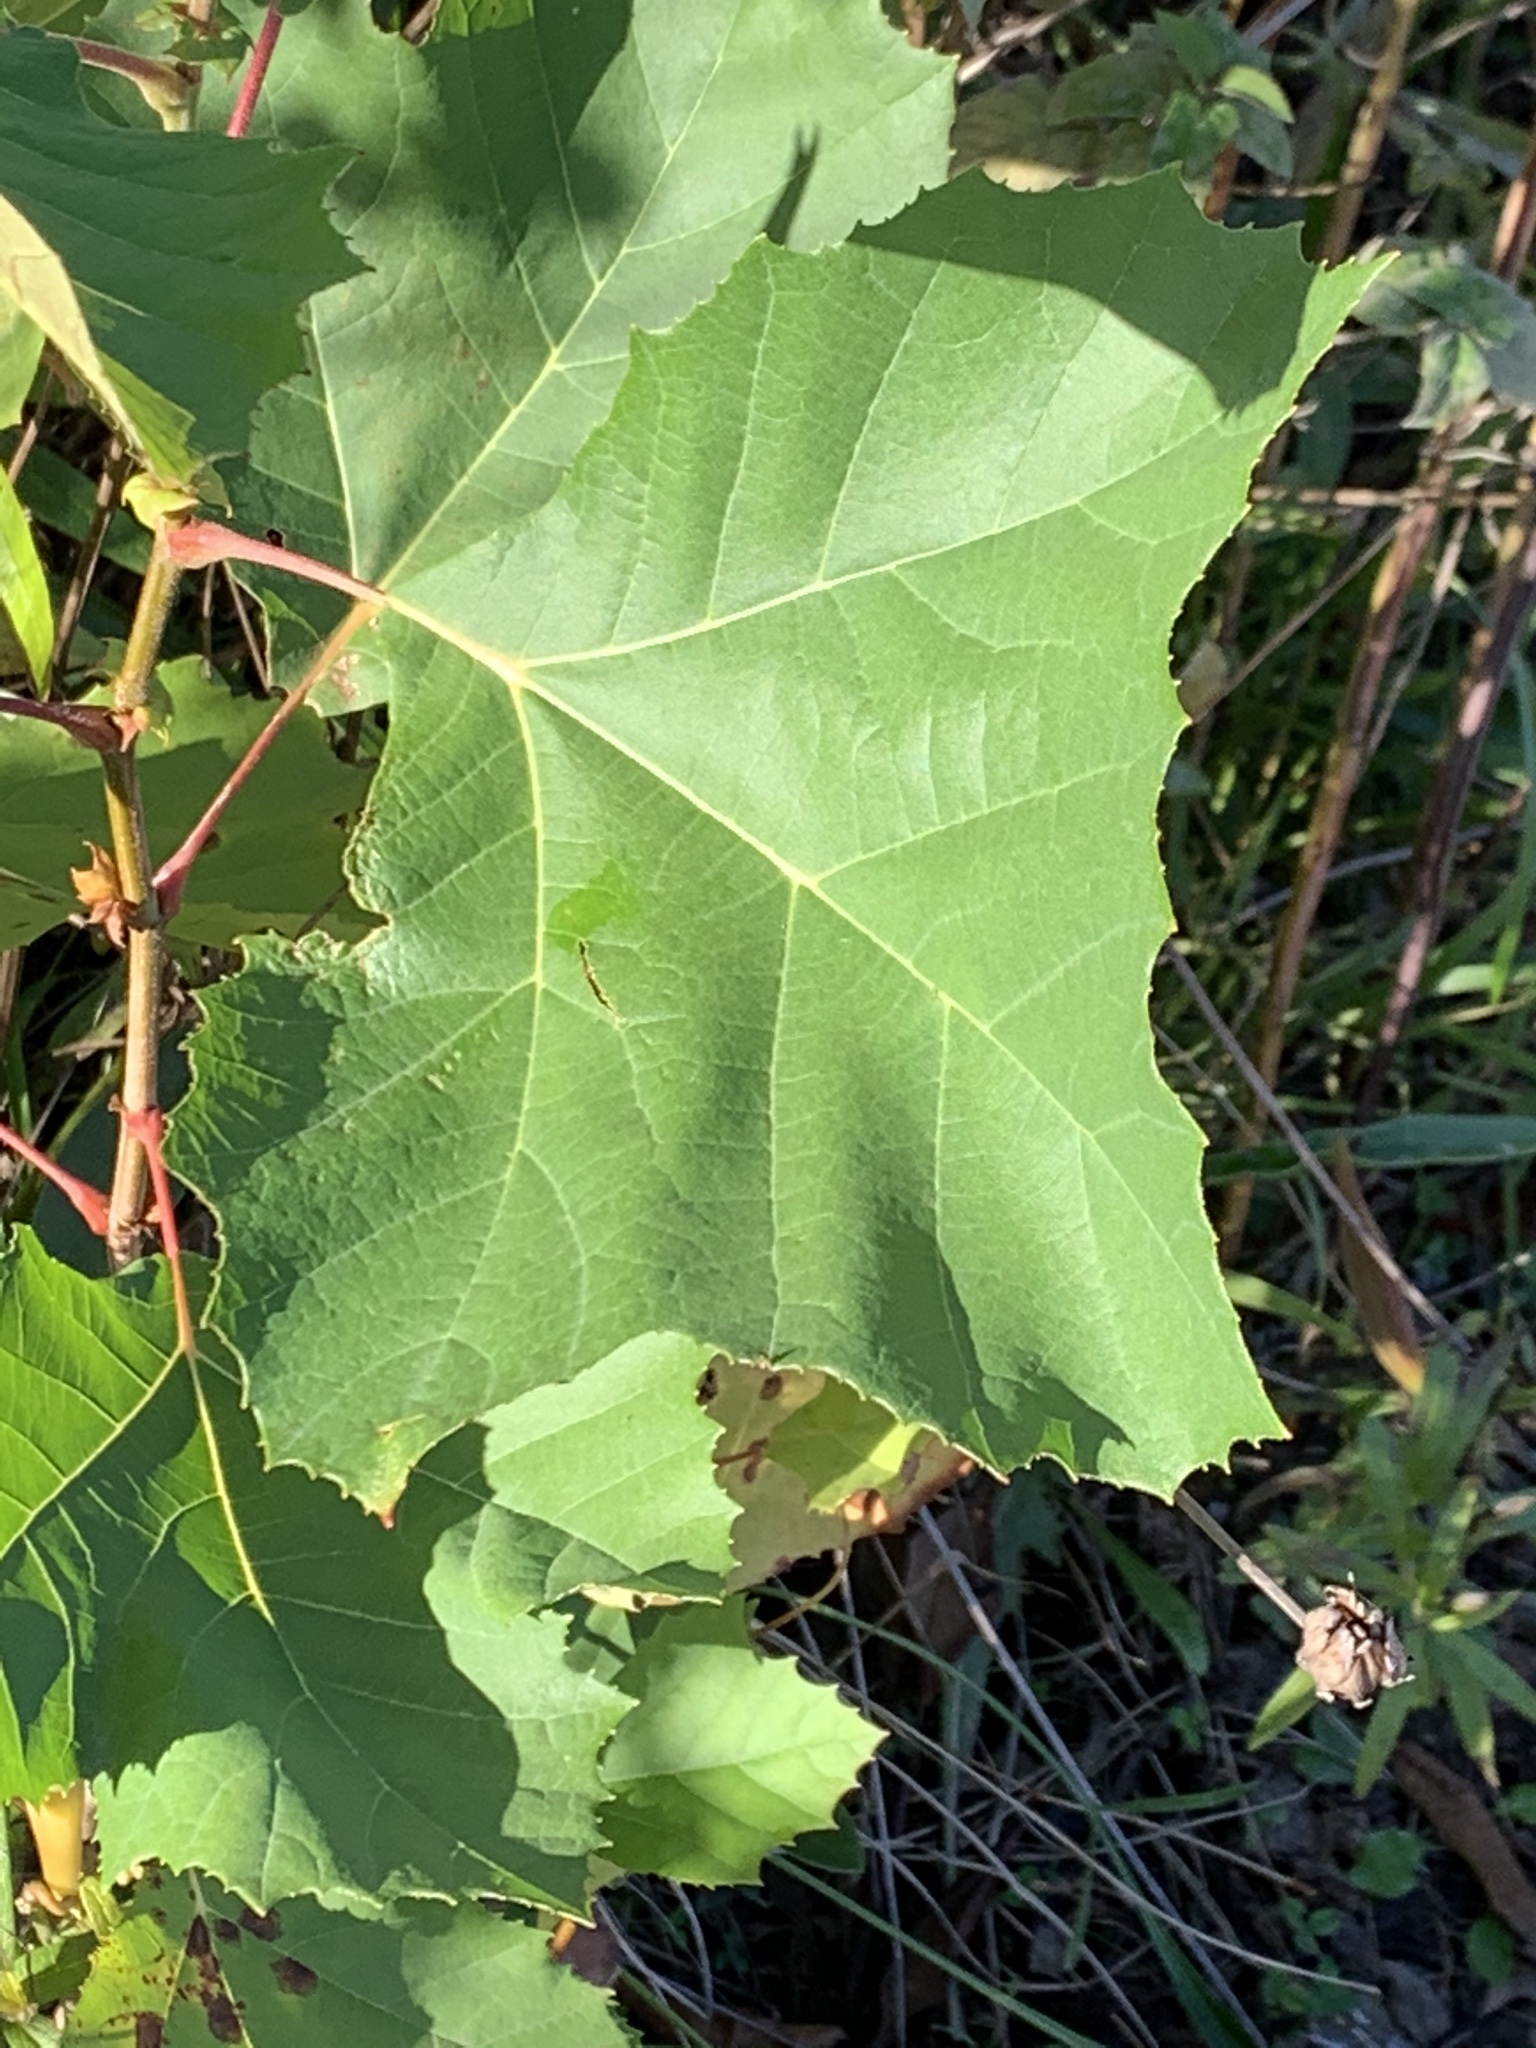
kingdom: Plantae
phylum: Tracheophyta
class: Magnoliopsida
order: Proteales
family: Platanaceae
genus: Platanus
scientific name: Platanus occidentalis
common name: American sycamore
